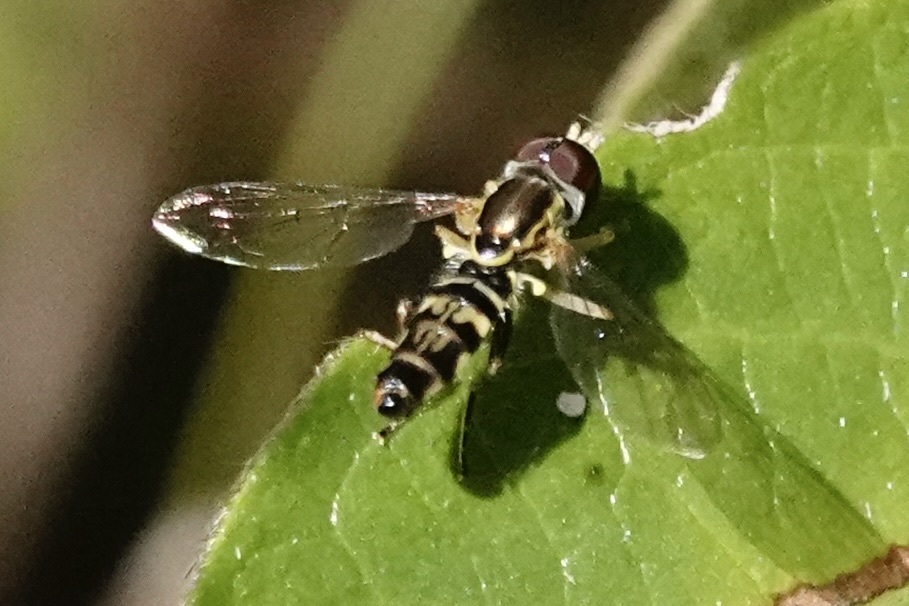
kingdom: Animalia
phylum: Arthropoda
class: Insecta
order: Diptera
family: Syrphidae
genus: Toxomerus
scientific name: Toxomerus geminatus
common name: Eastern calligrapher
